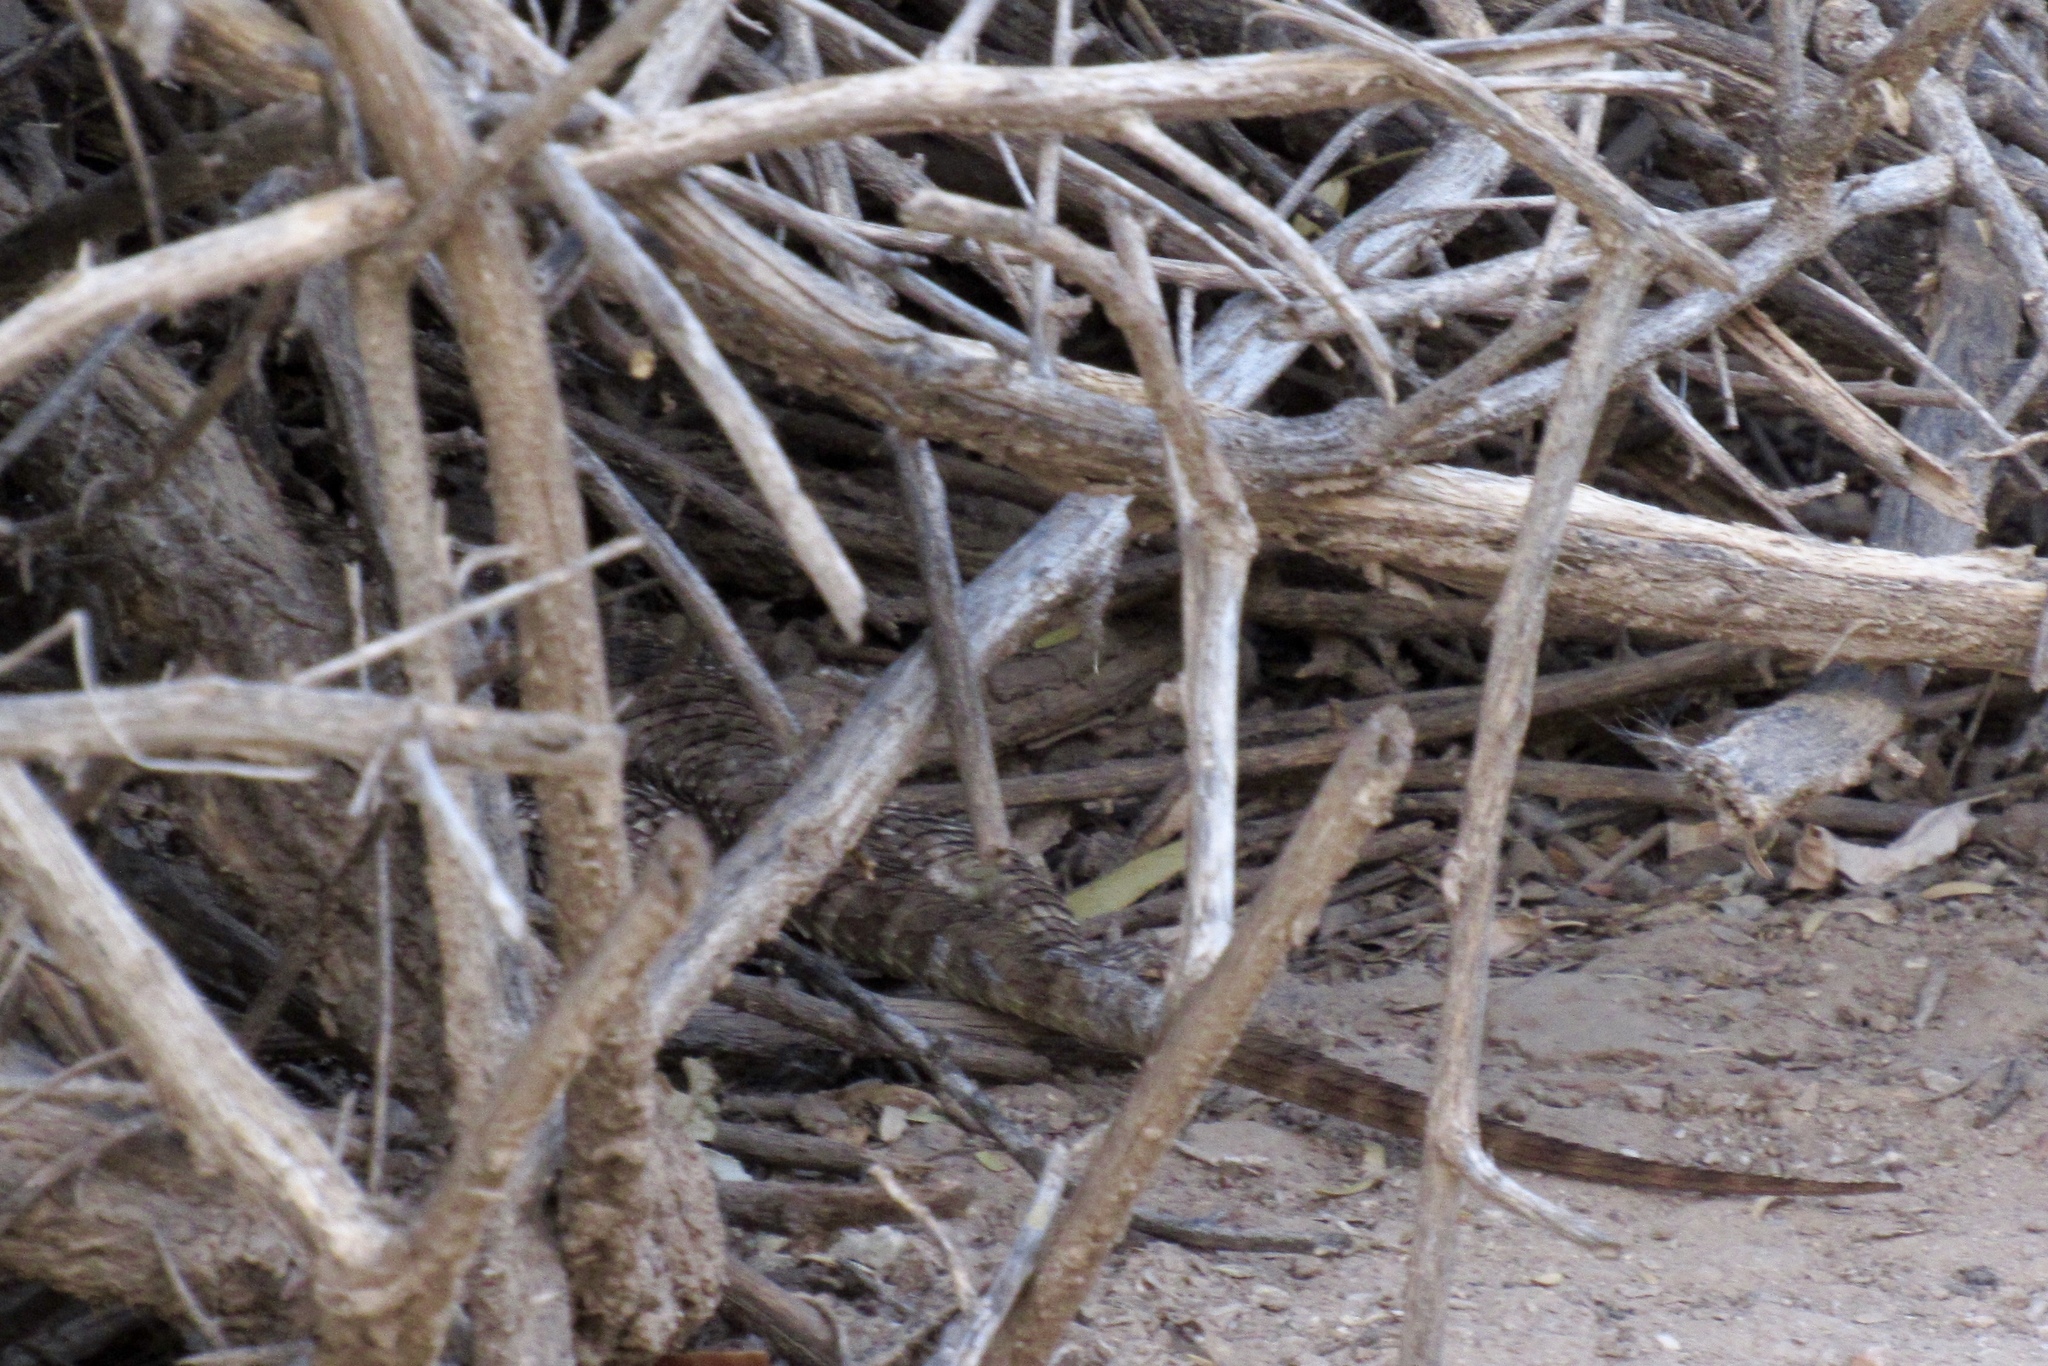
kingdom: Animalia
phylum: Chordata
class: Squamata
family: Phrynosomatidae
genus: Sceloporus
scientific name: Sceloporus magister
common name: Desert spiny lizard
